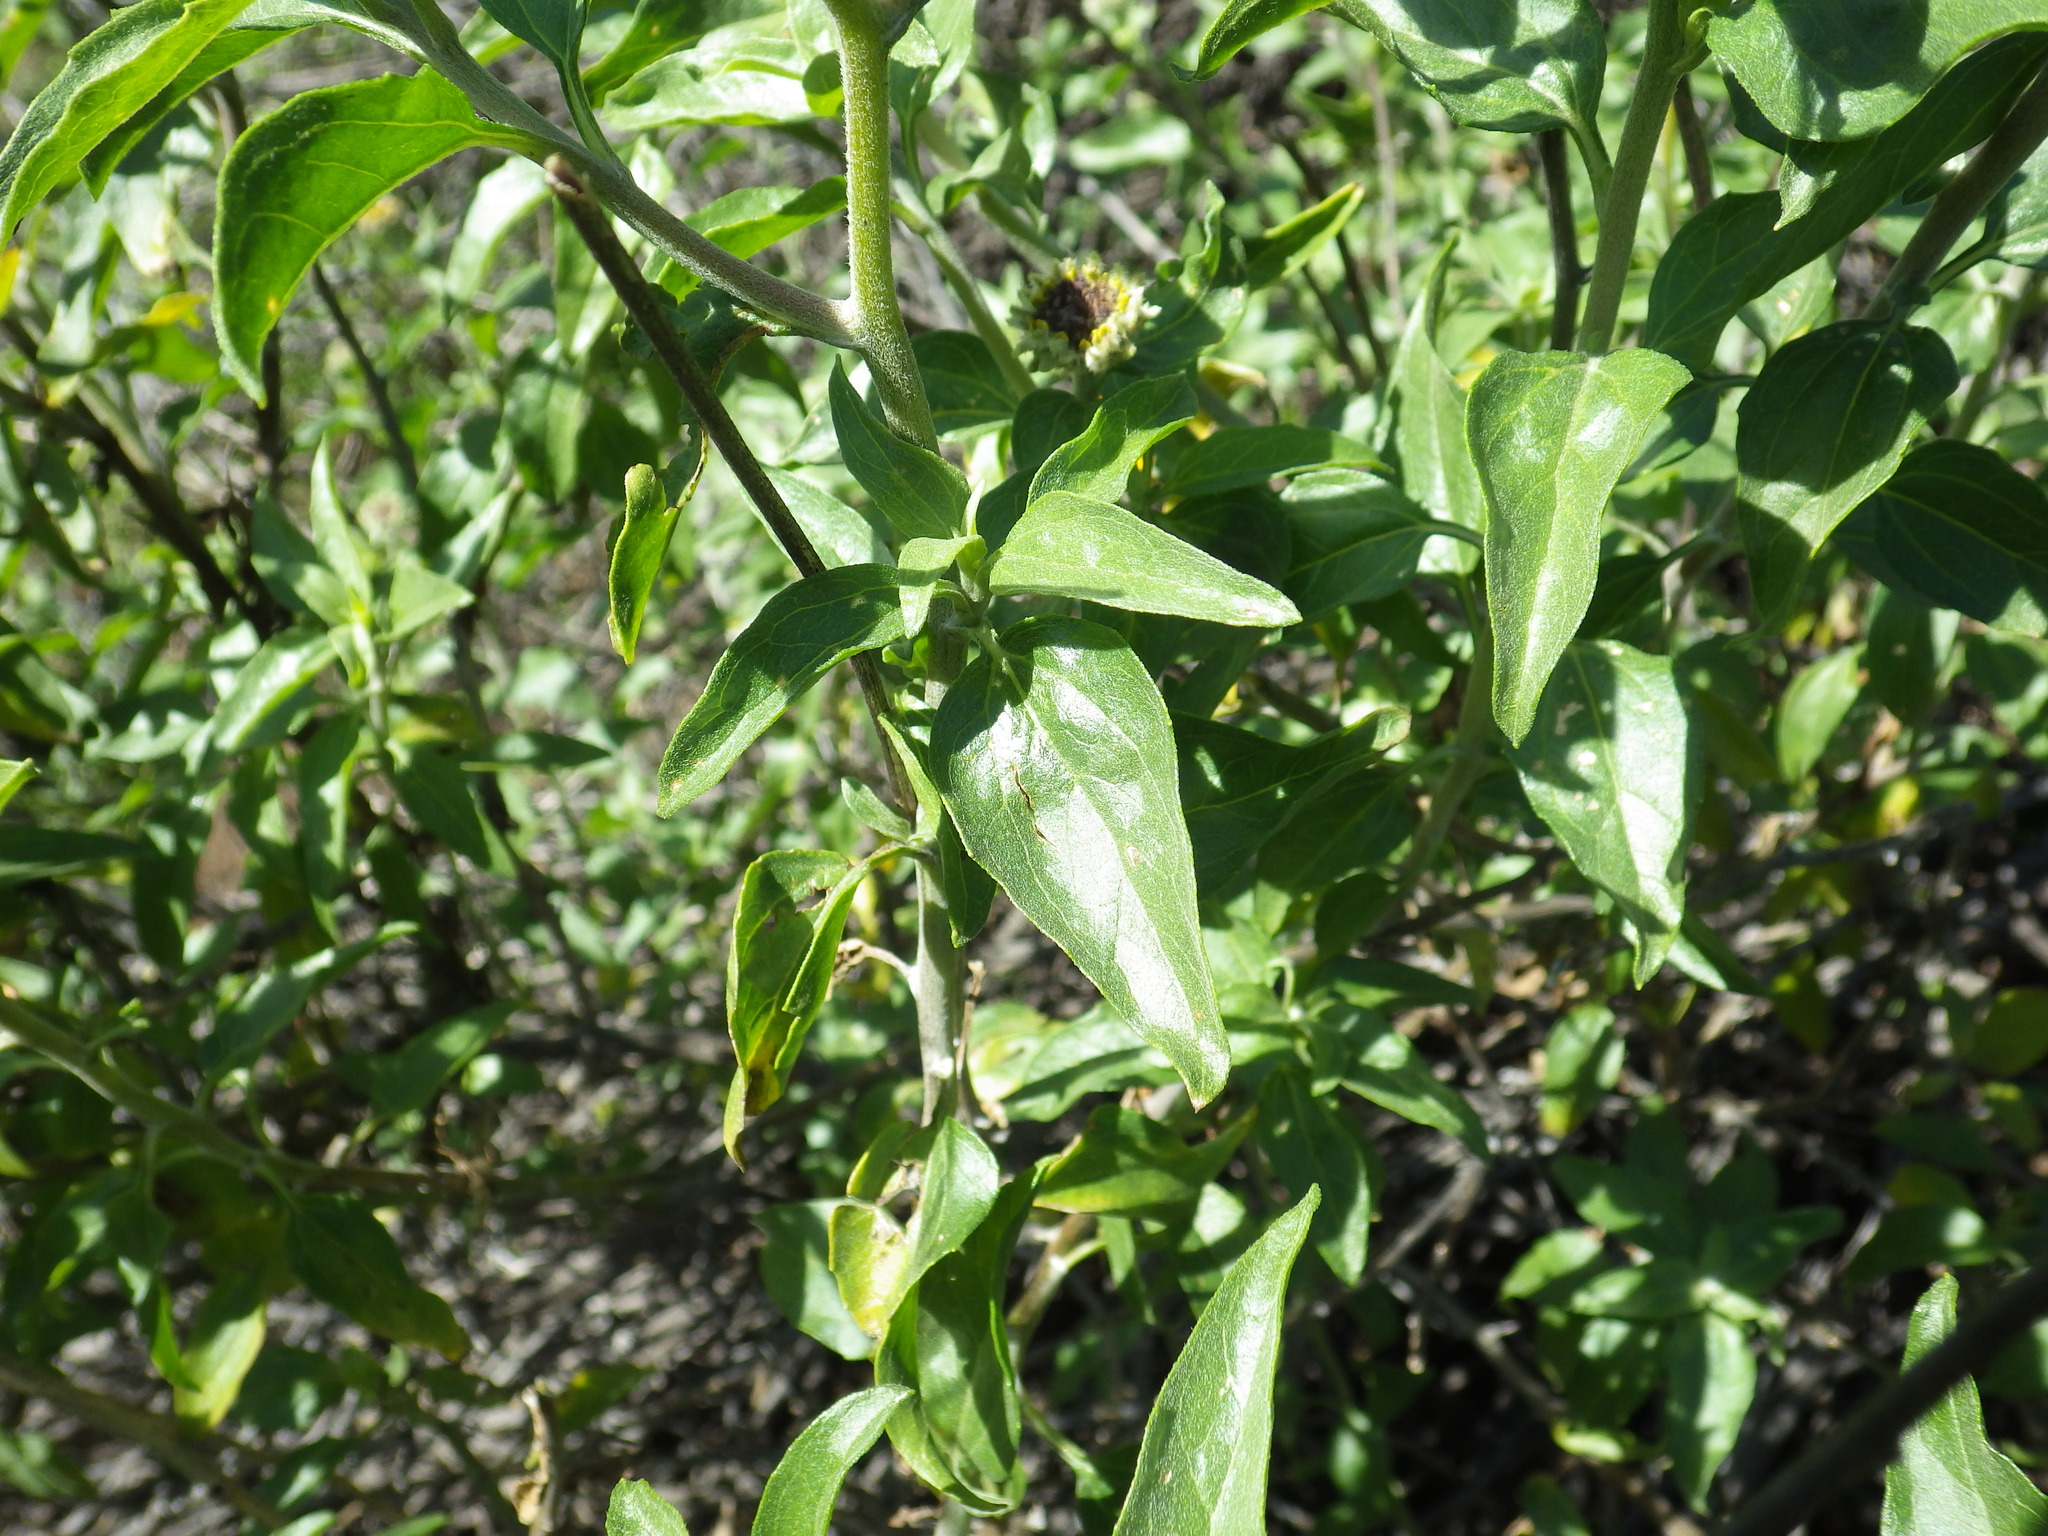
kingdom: Plantae
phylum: Tracheophyta
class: Magnoliopsida
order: Asterales
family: Asteraceae
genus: Encelia
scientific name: Encelia californica
